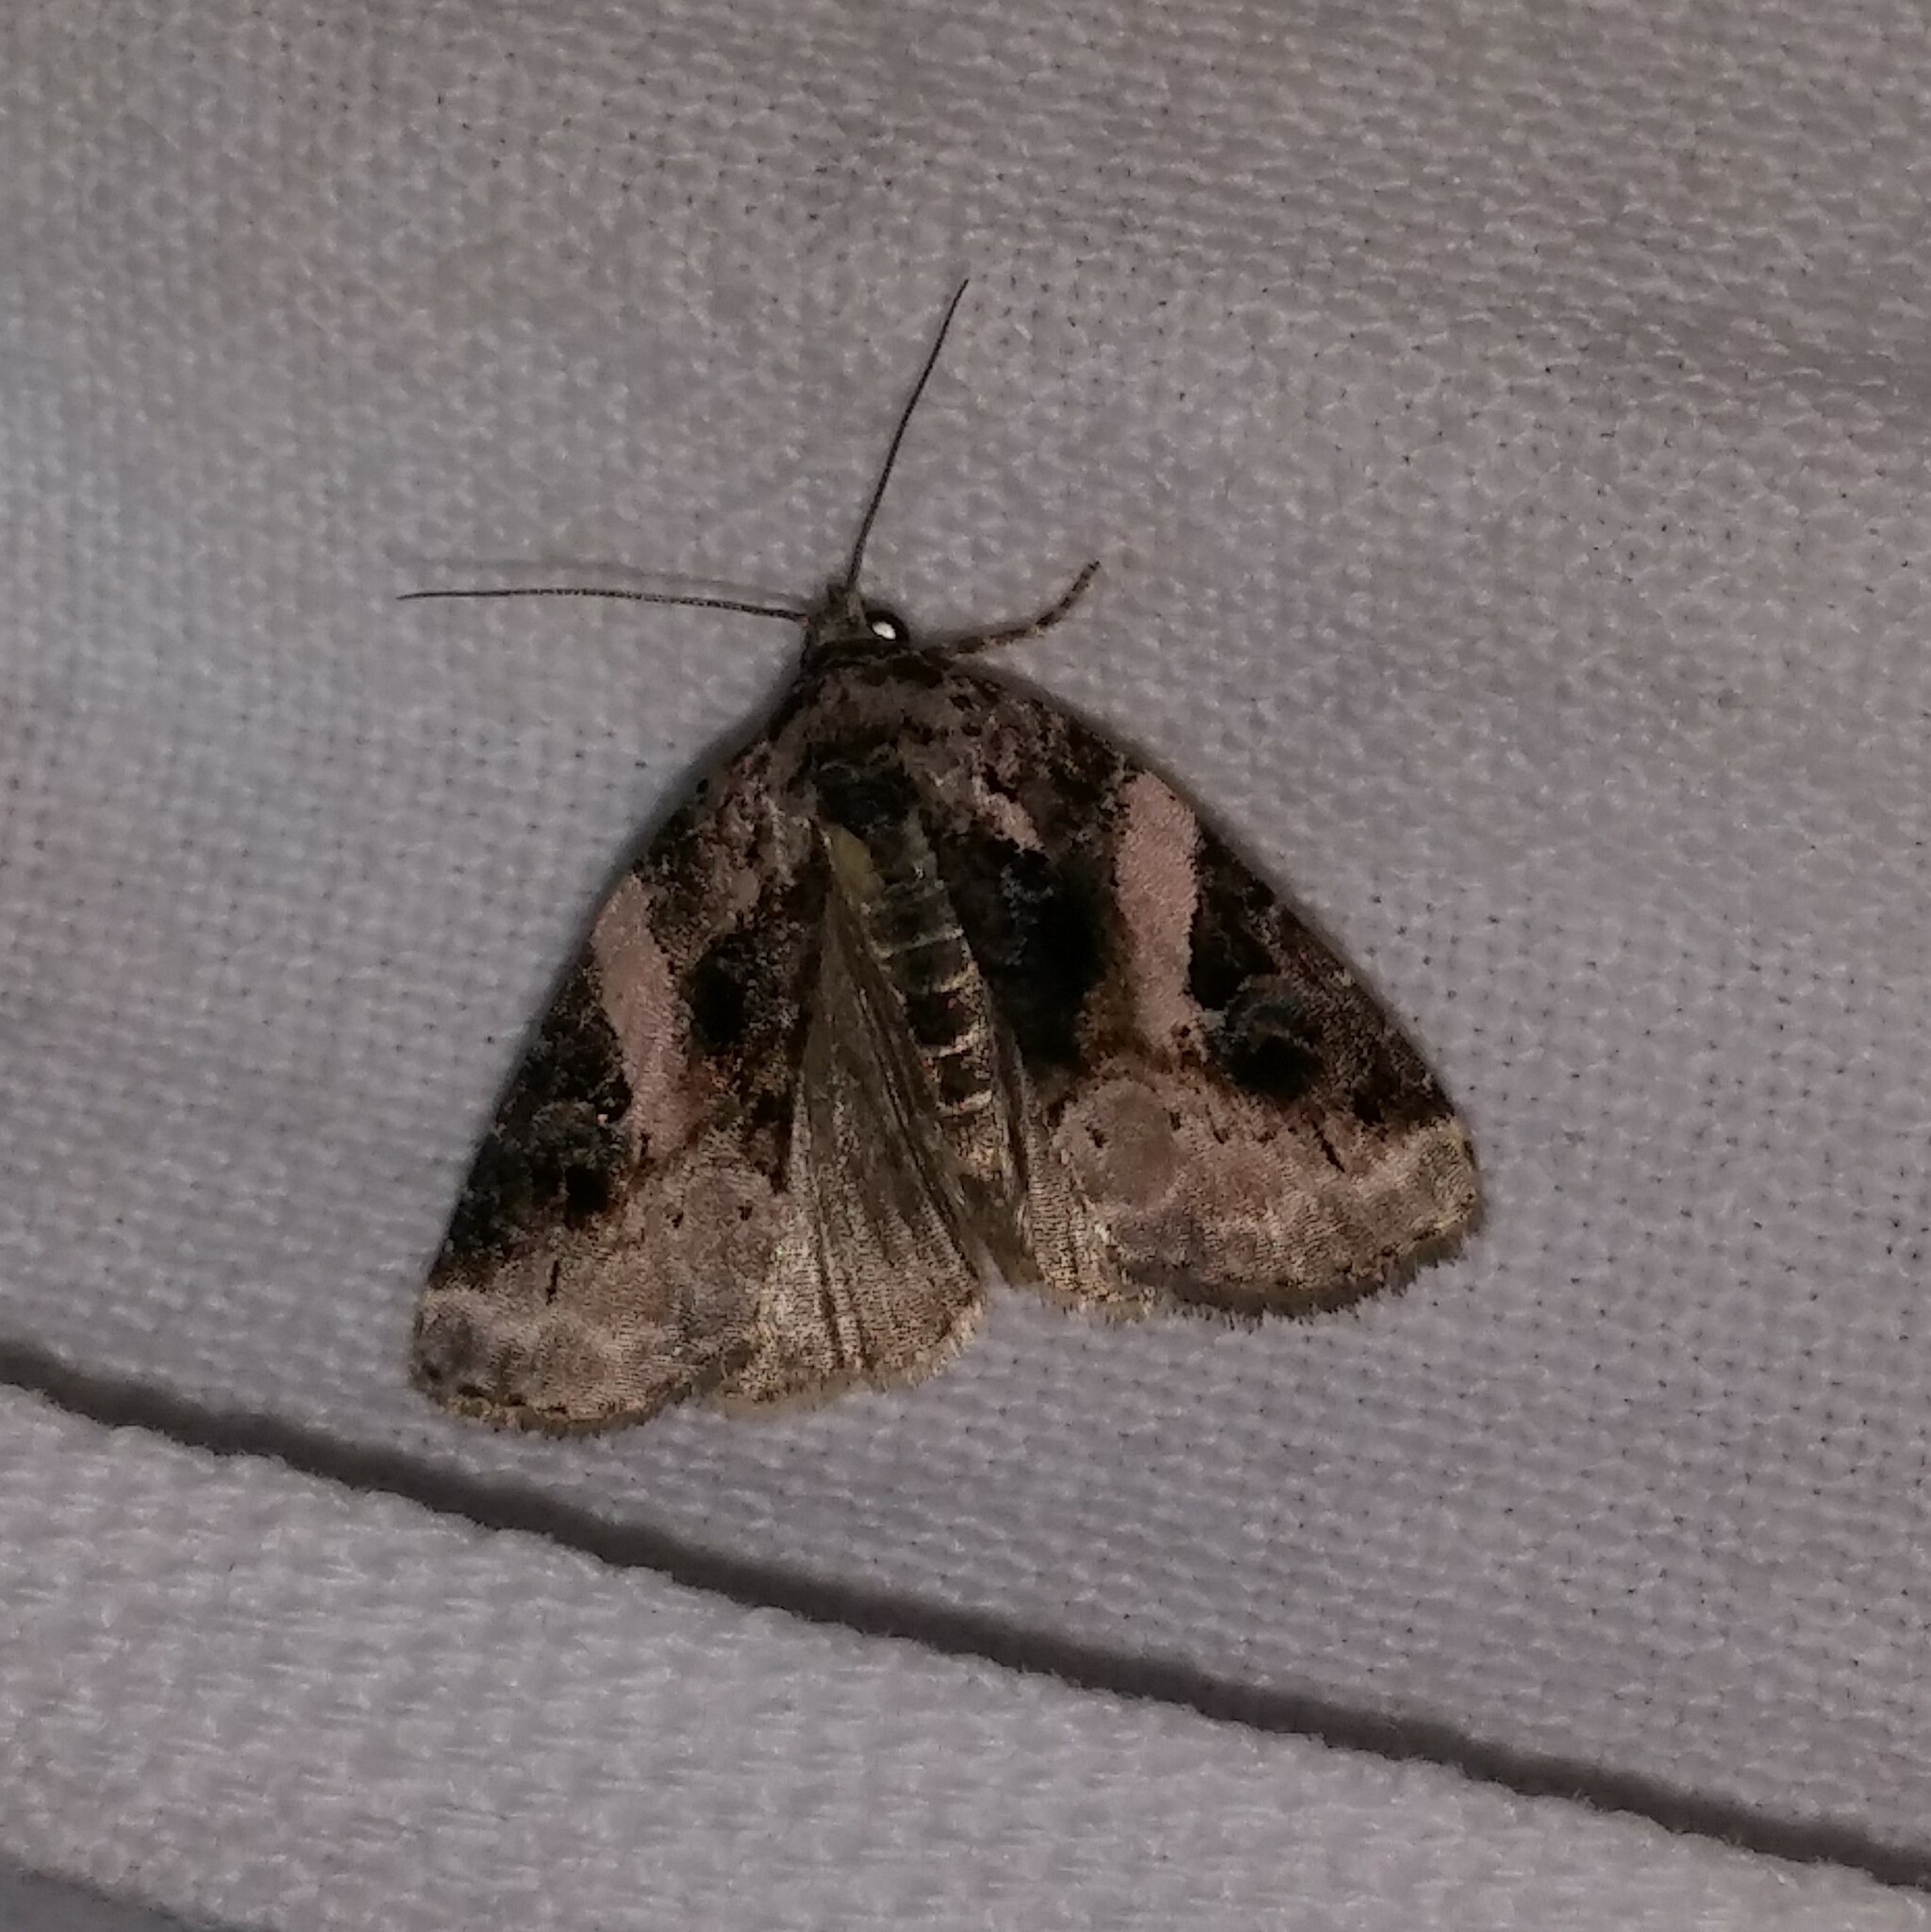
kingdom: Animalia
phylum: Arthropoda
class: Insecta
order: Lepidoptera
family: Noctuidae
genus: Pseudeustrotia
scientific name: Pseudeustrotia carneola
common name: Pink-barred lithacodia moth
